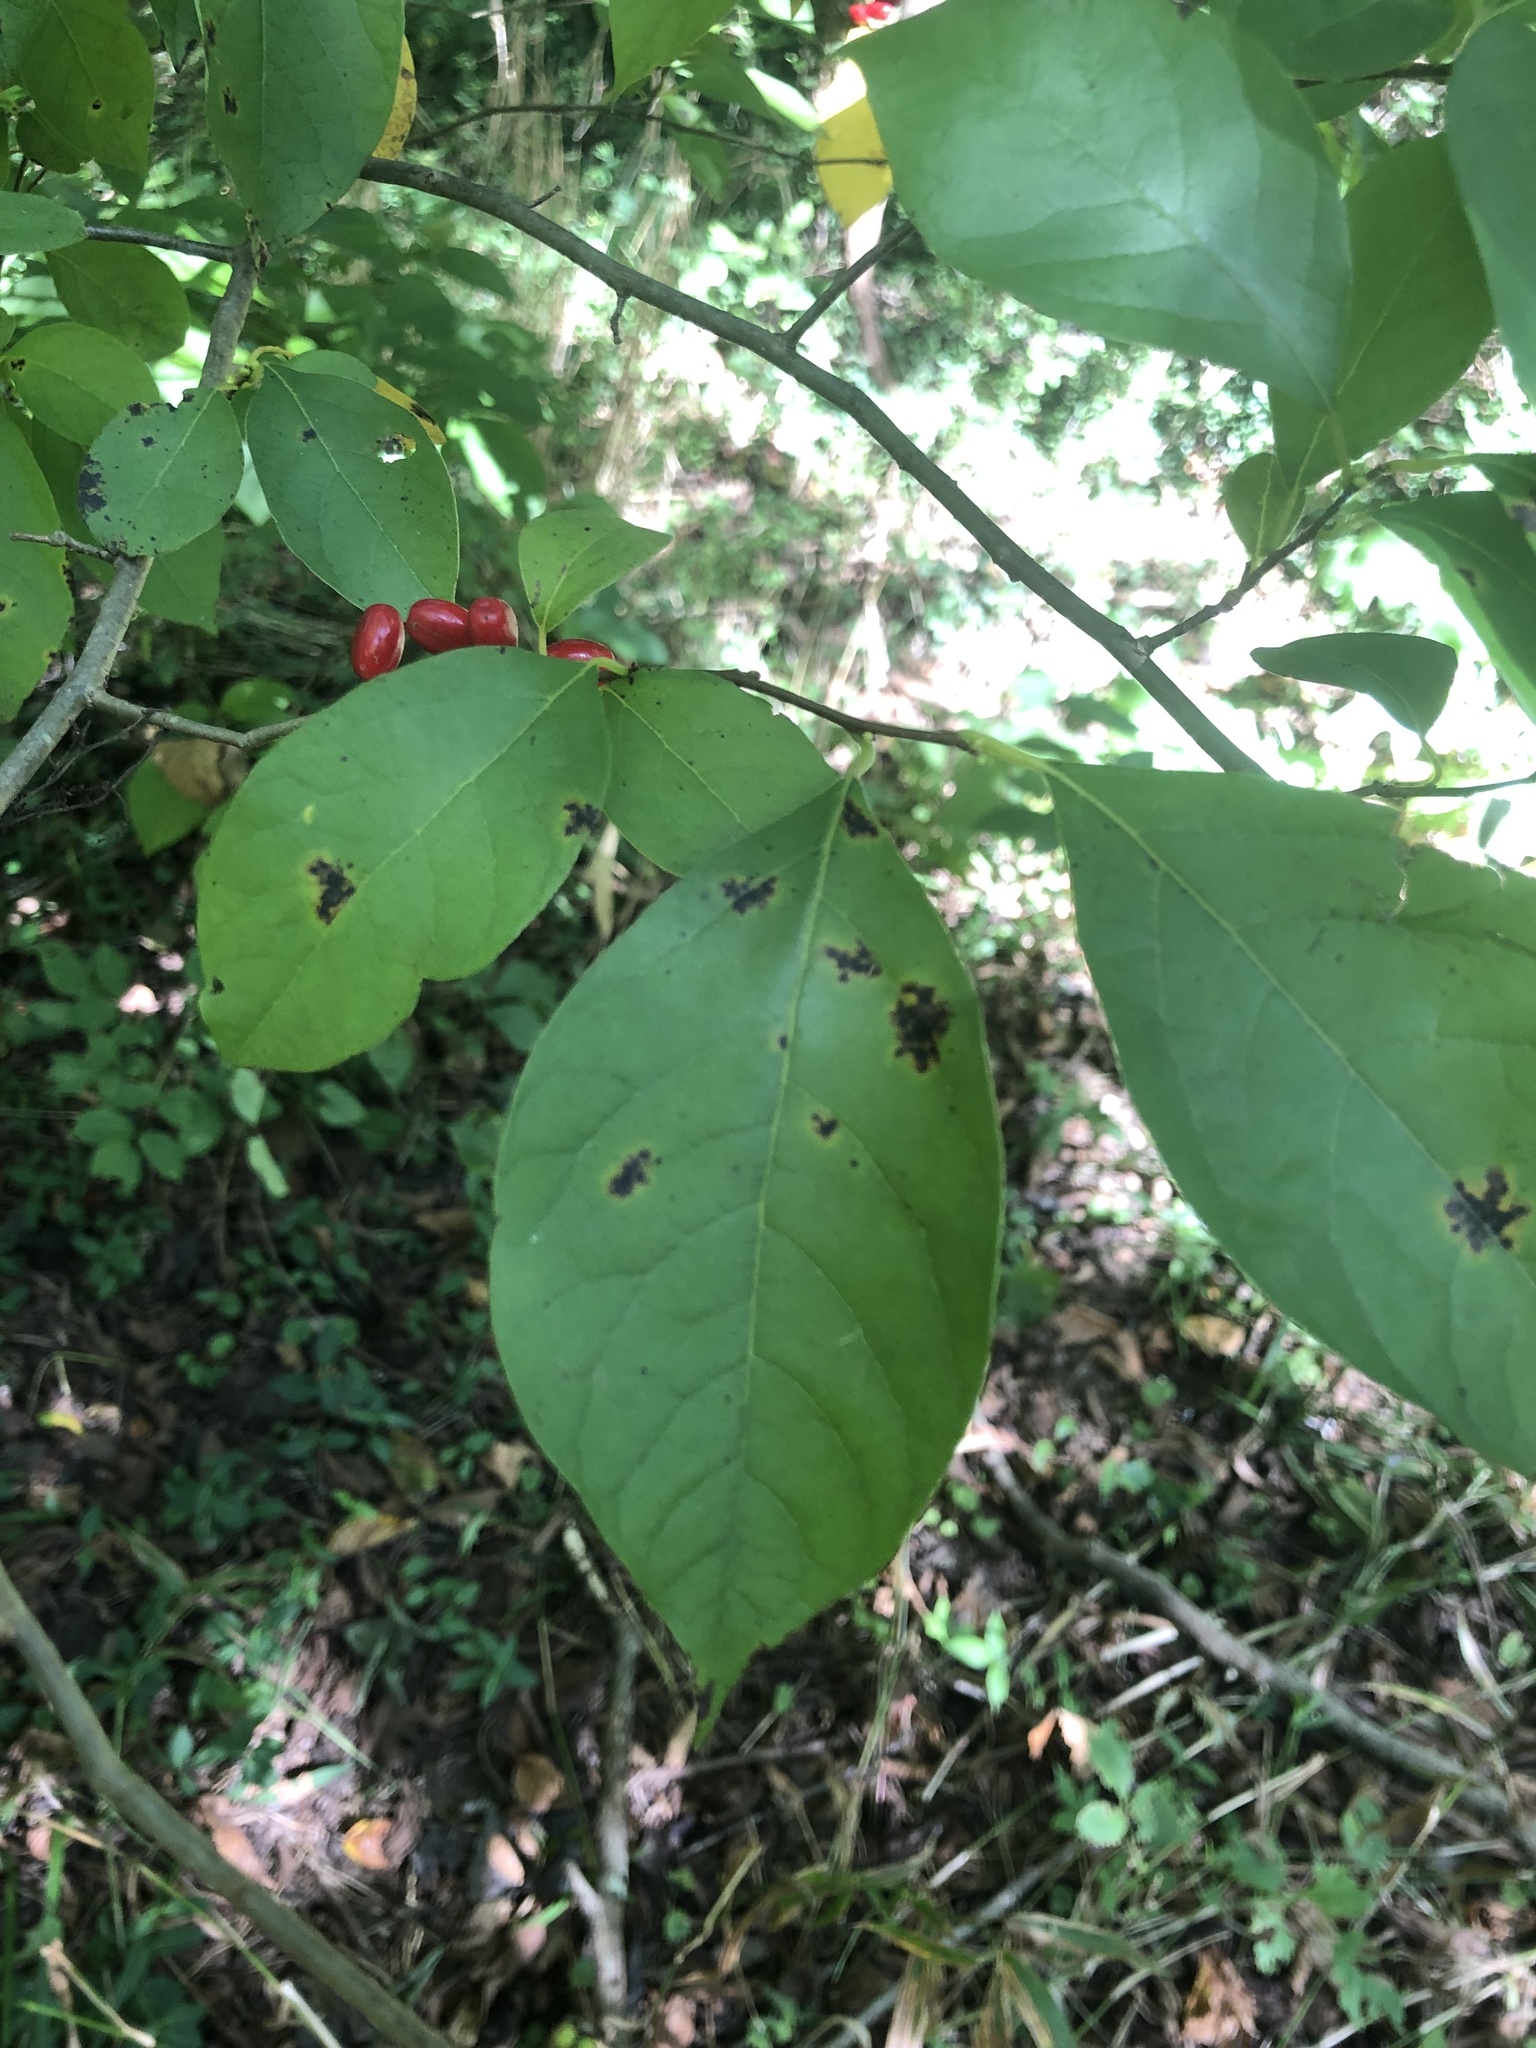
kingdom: Plantae
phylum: Tracheophyta
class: Magnoliopsida
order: Laurales
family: Lauraceae
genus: Lindera
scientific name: Lindera benzoin
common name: Spicebush
